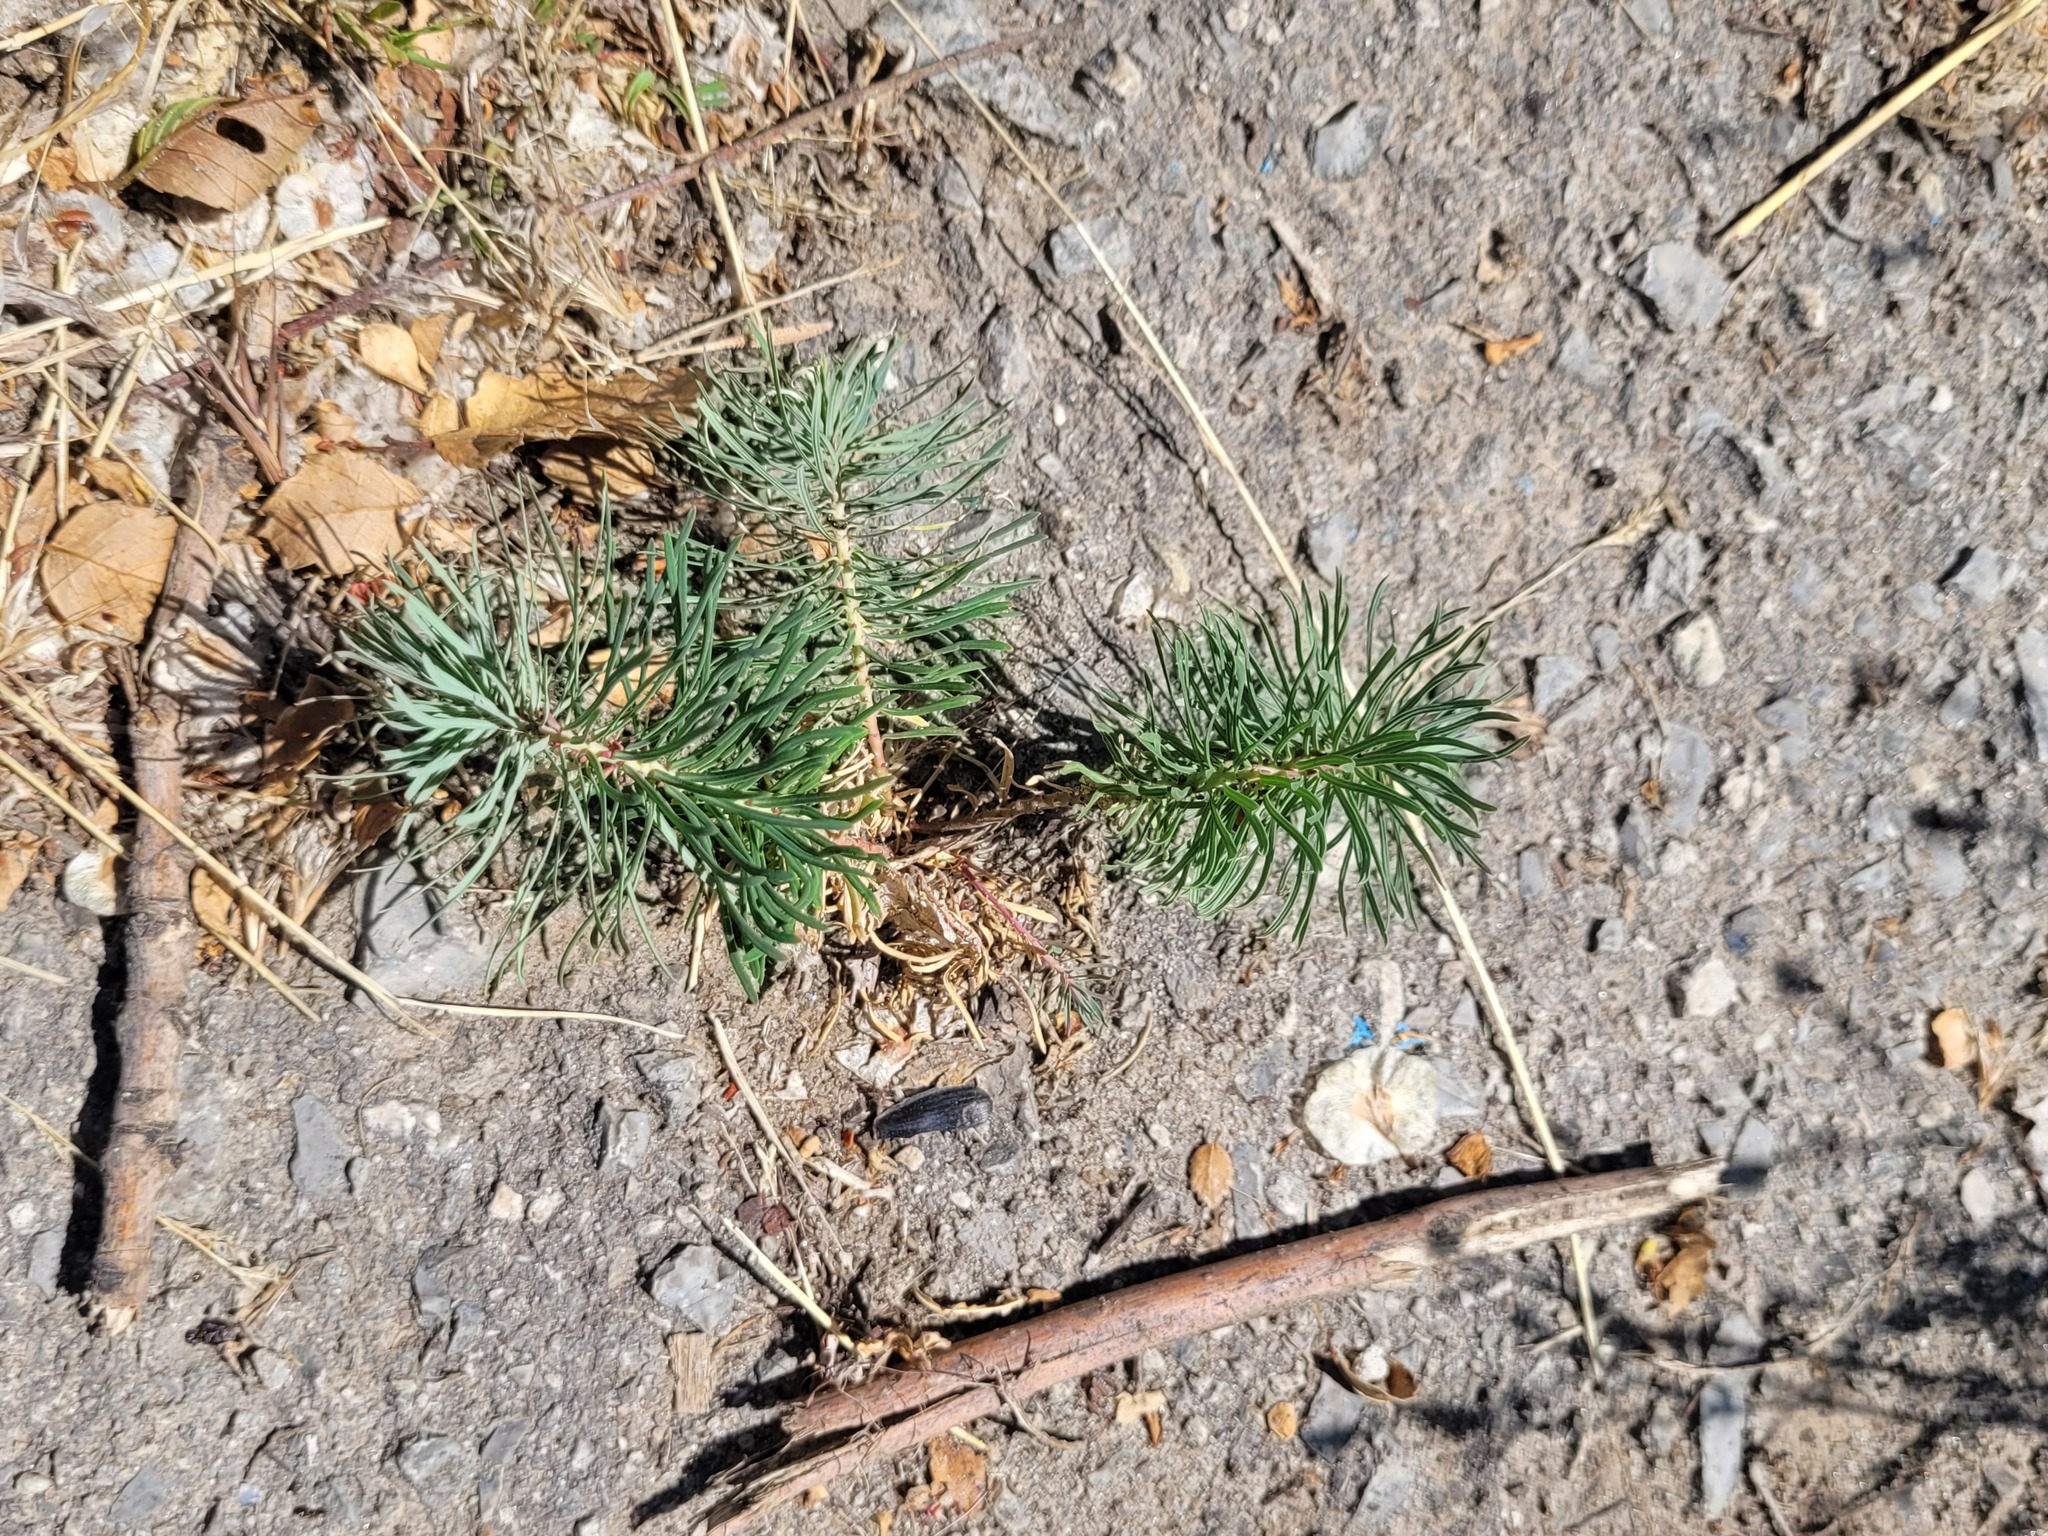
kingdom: Plantae
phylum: Tracheophyta
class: Magnoliopsida
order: Malpighiales
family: Euphorbiaceae
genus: Euphorbia
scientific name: Euphorbia cyparissias
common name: Cypress spurge
